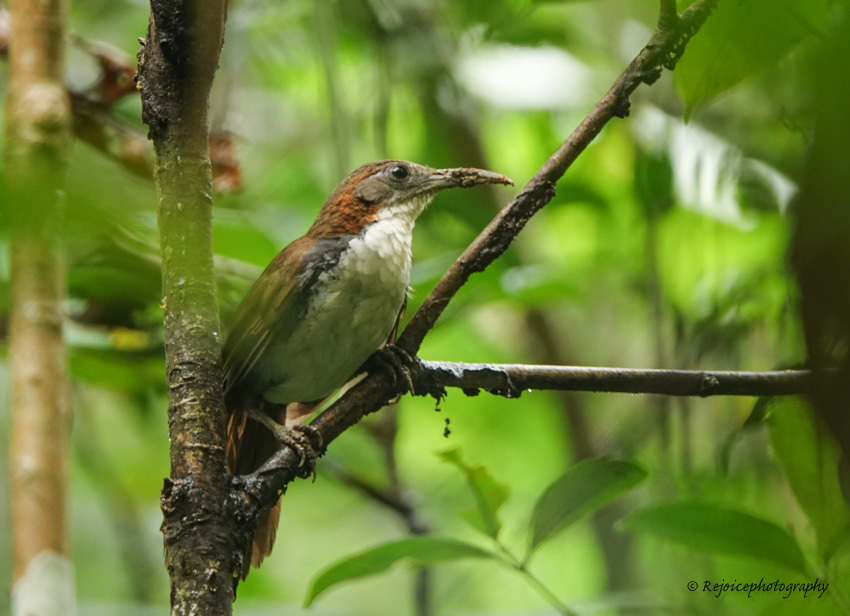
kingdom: Animalia
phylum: Chordata
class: Aves
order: Passeriformes
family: Timaliidae
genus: Pomatorhinus
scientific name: Pomatorhinus hypoleucos
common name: Large scimitar babbler
